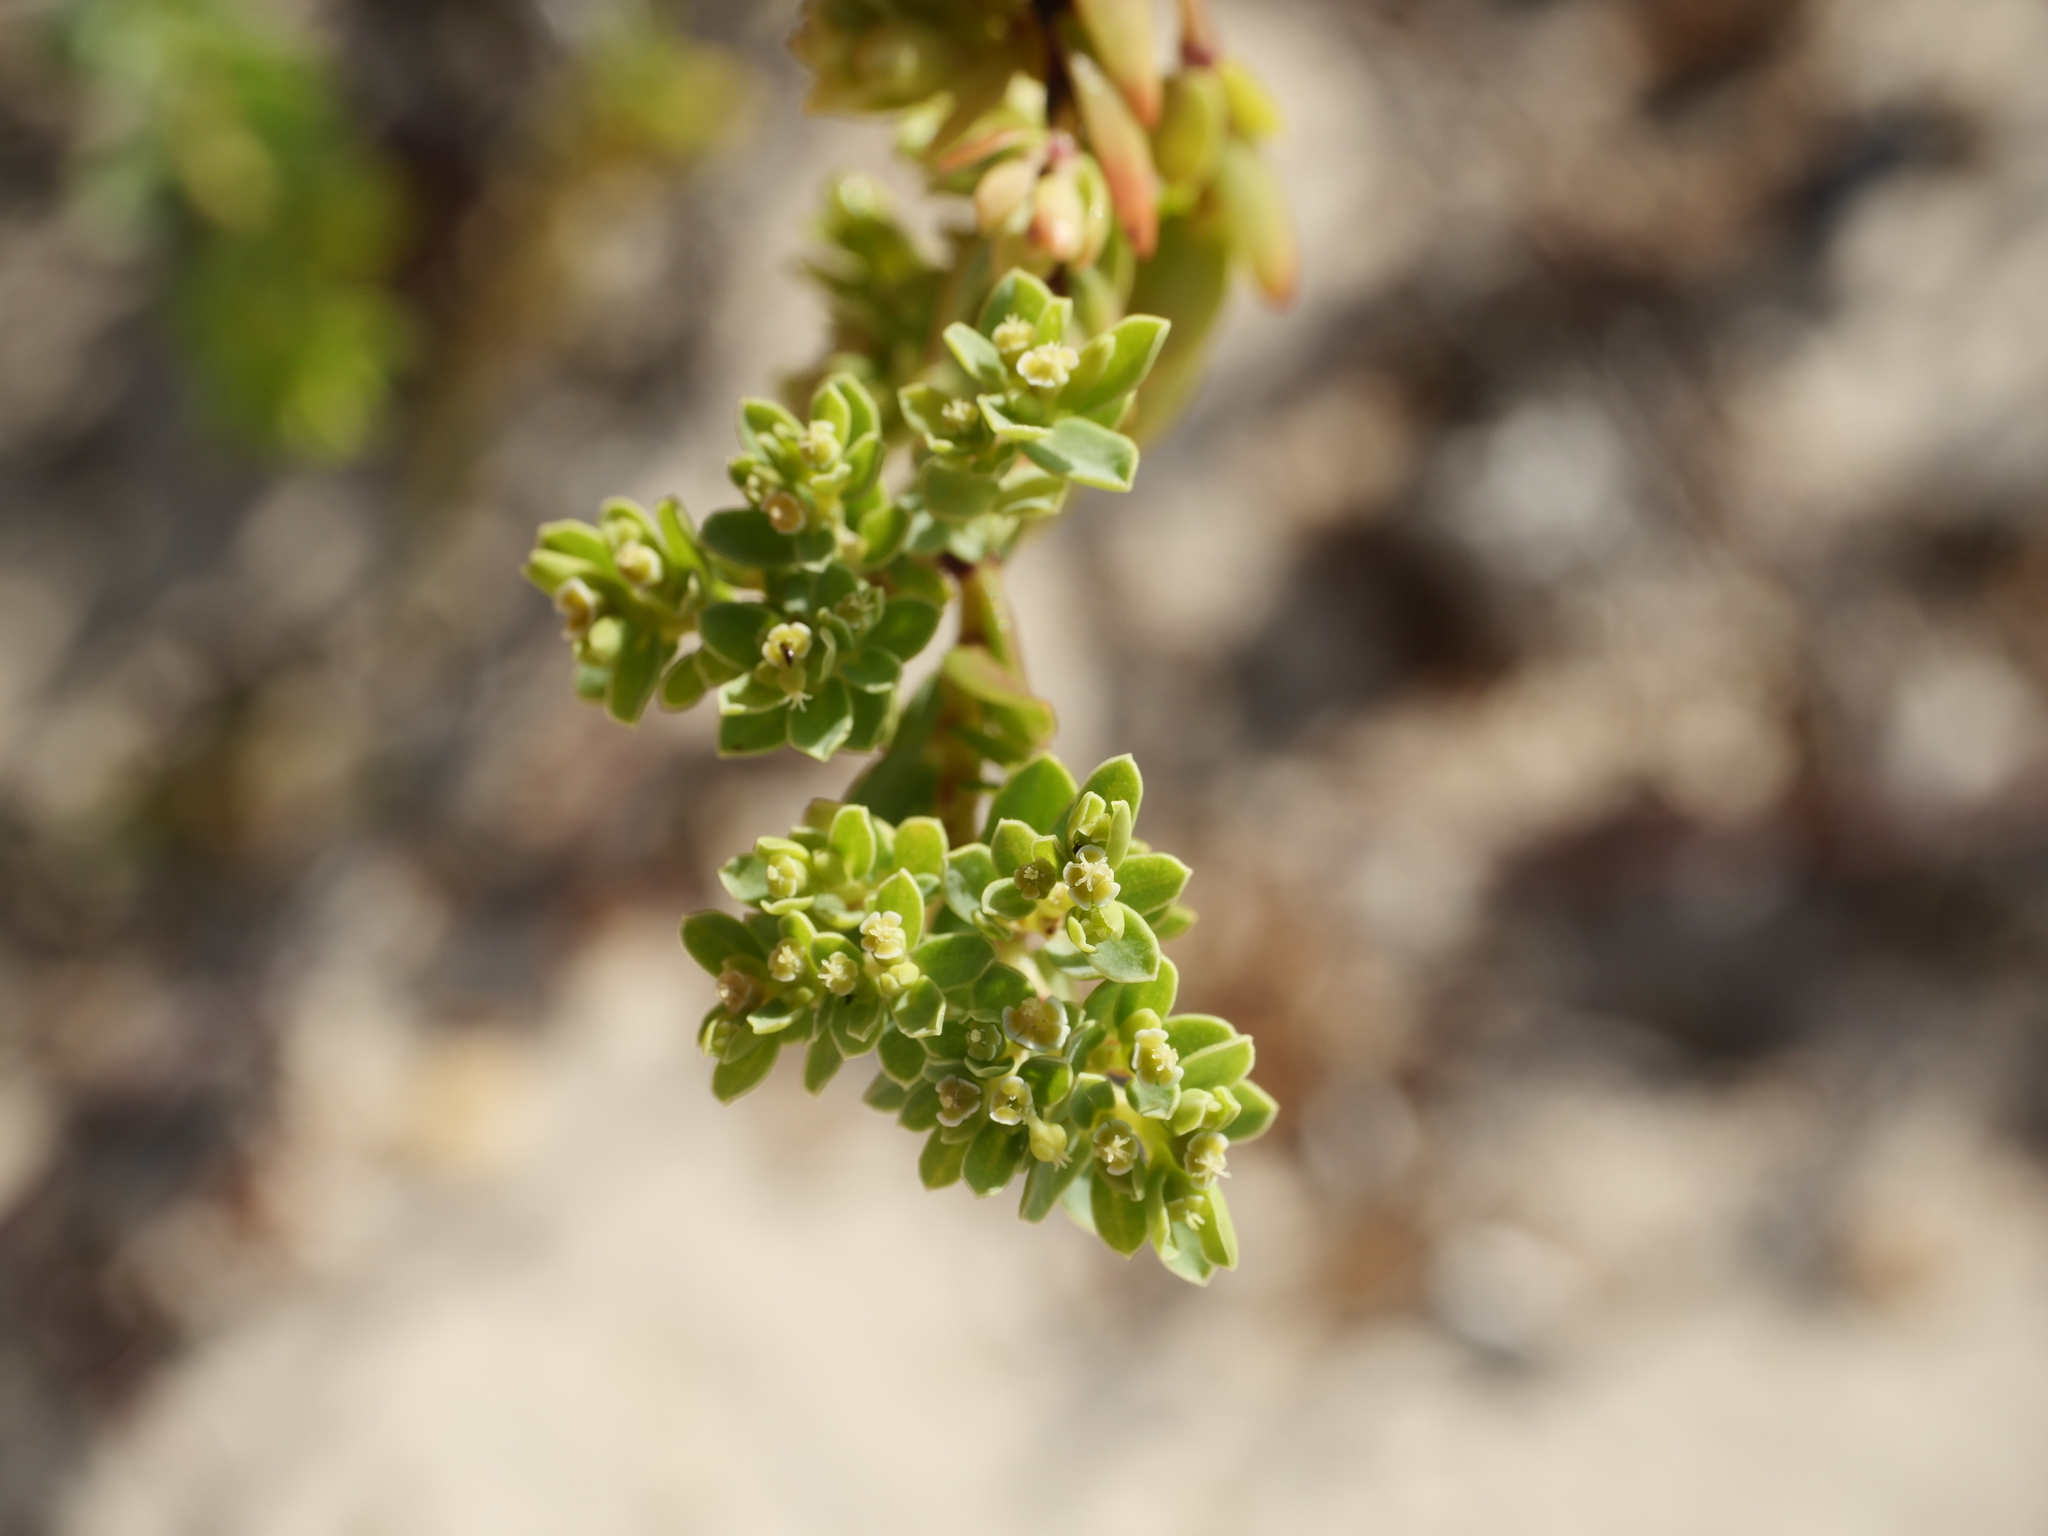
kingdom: Plantae
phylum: Tracheophyta
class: Magnoliopsida
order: Malpighiales
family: Euphorbiaceae
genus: Euphorbia
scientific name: Euphorbia mesembryanthemifolia
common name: Coastal beach sandmat
